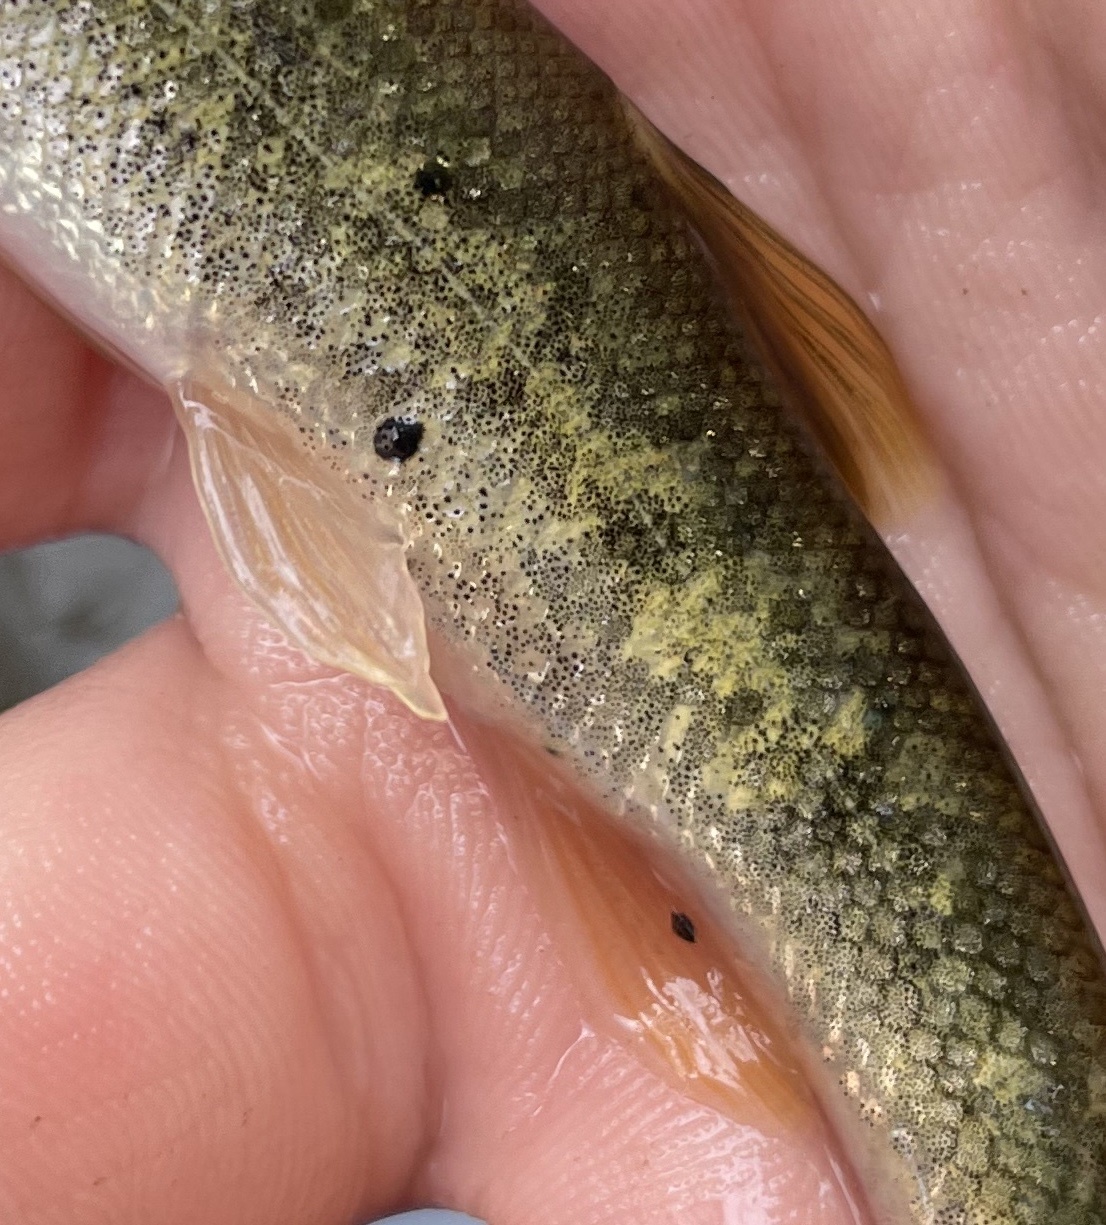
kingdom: Animalia
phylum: Platyhelminthes
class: Trematoda
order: Diplostomida
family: Diplostomidae
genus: Neascus
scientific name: Neascus
